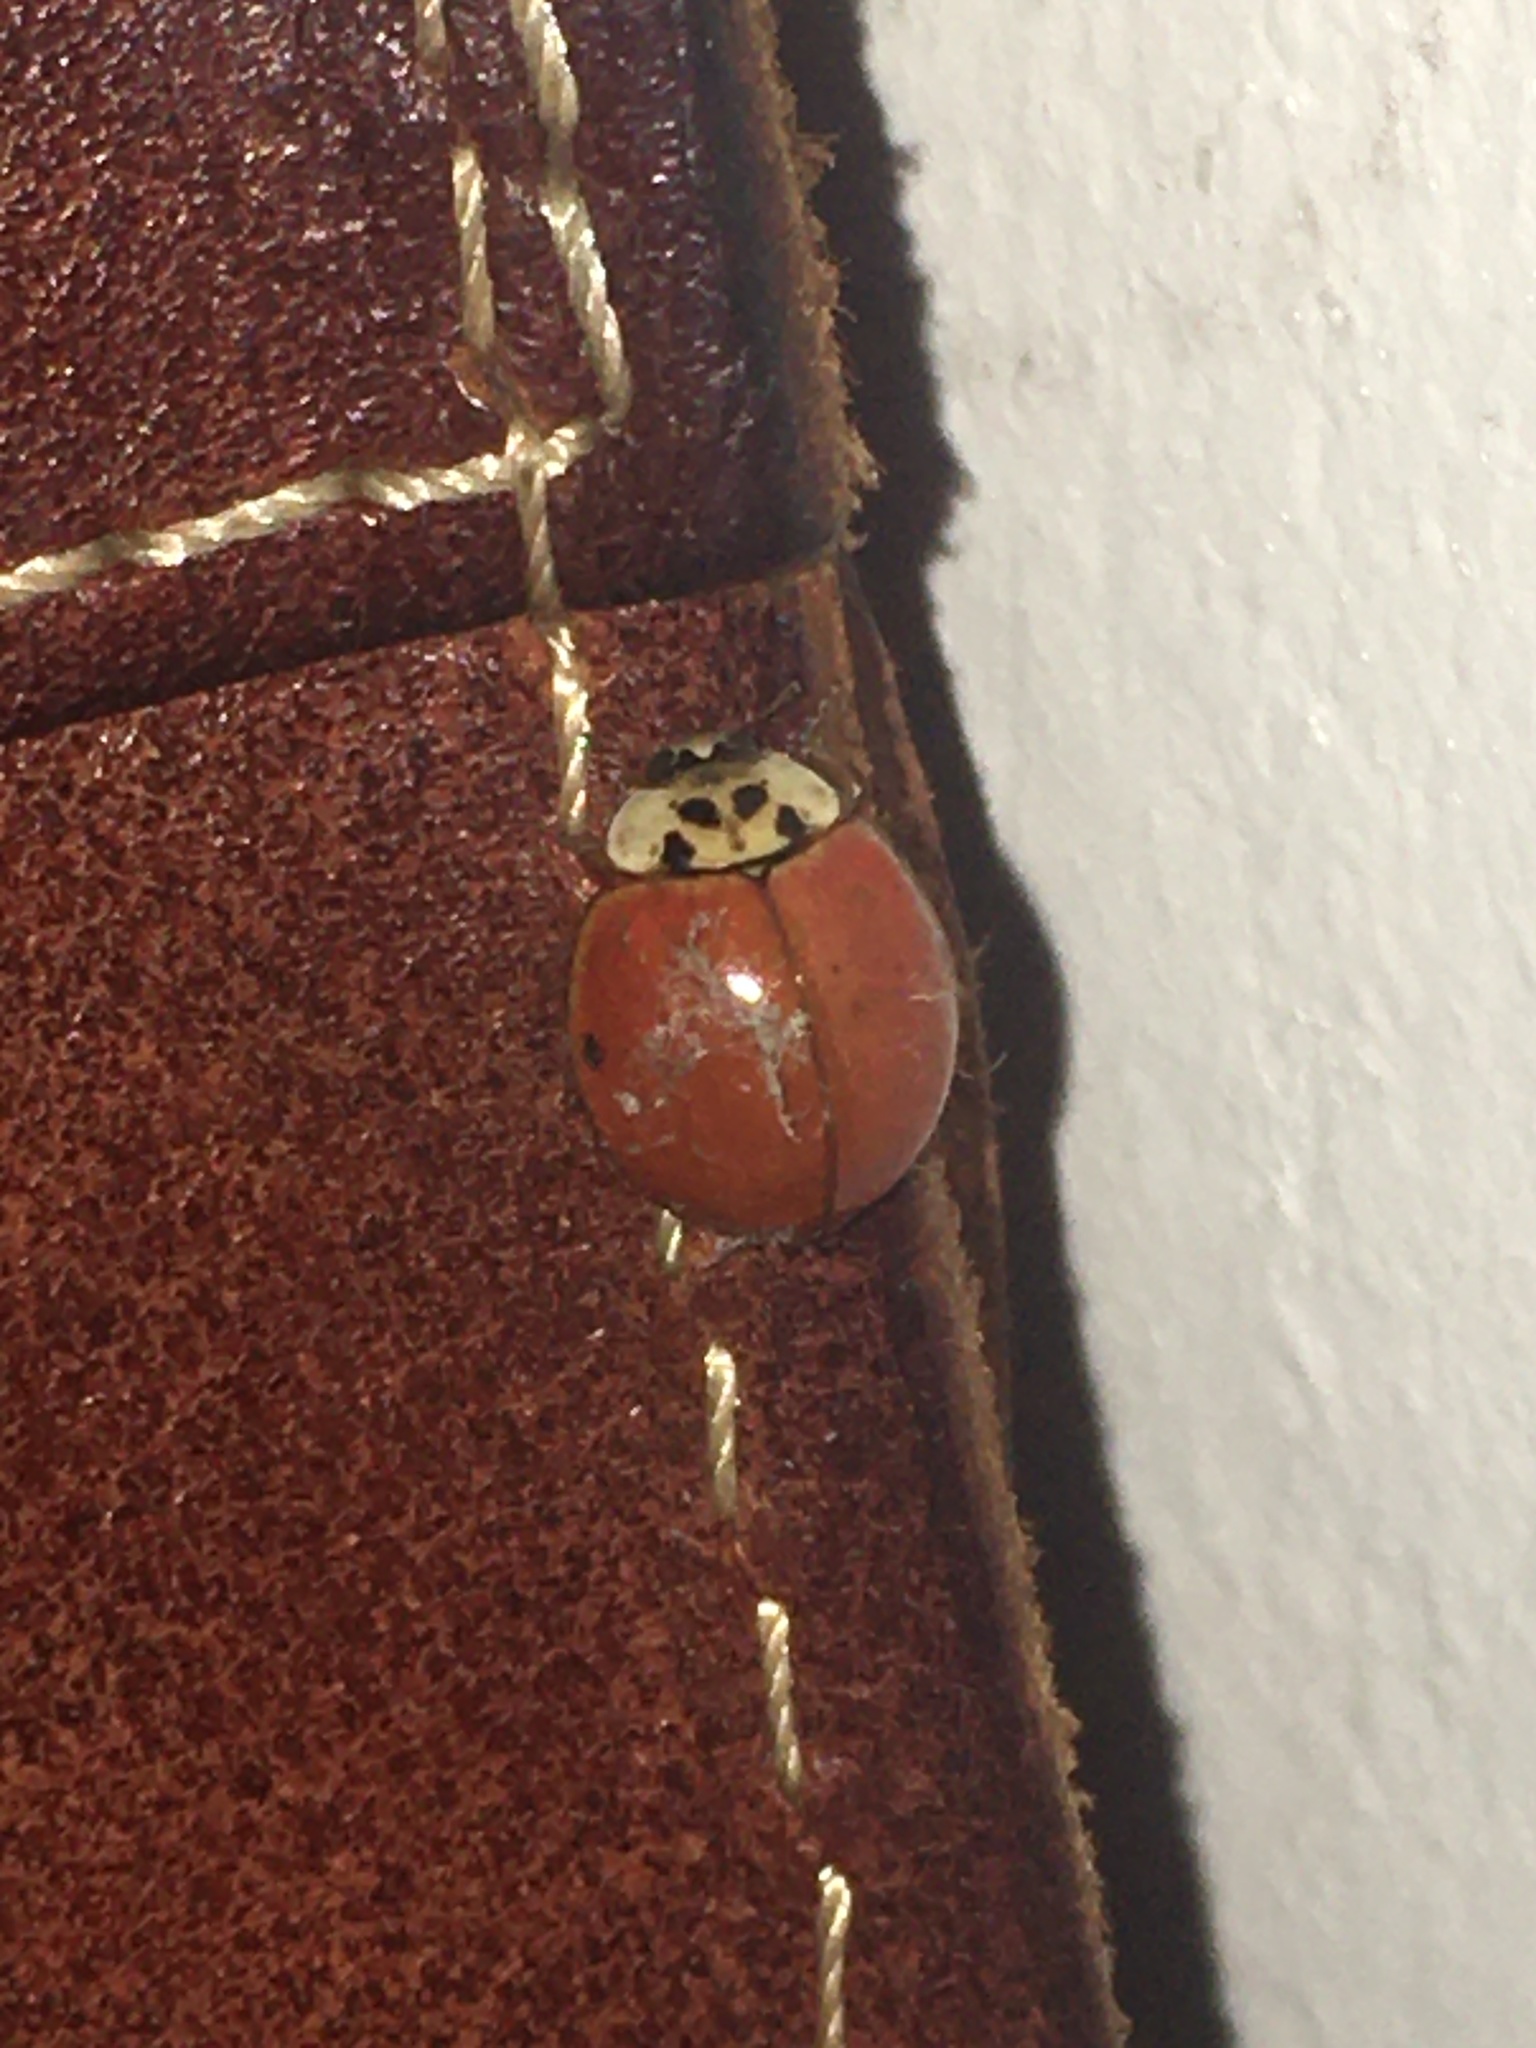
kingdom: Animalia
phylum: Arthropoda
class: Insecta
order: Coleoptera
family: Coccinellidae
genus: Harmonia
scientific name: Harmonia axyridis
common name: Harlequin ladybird
